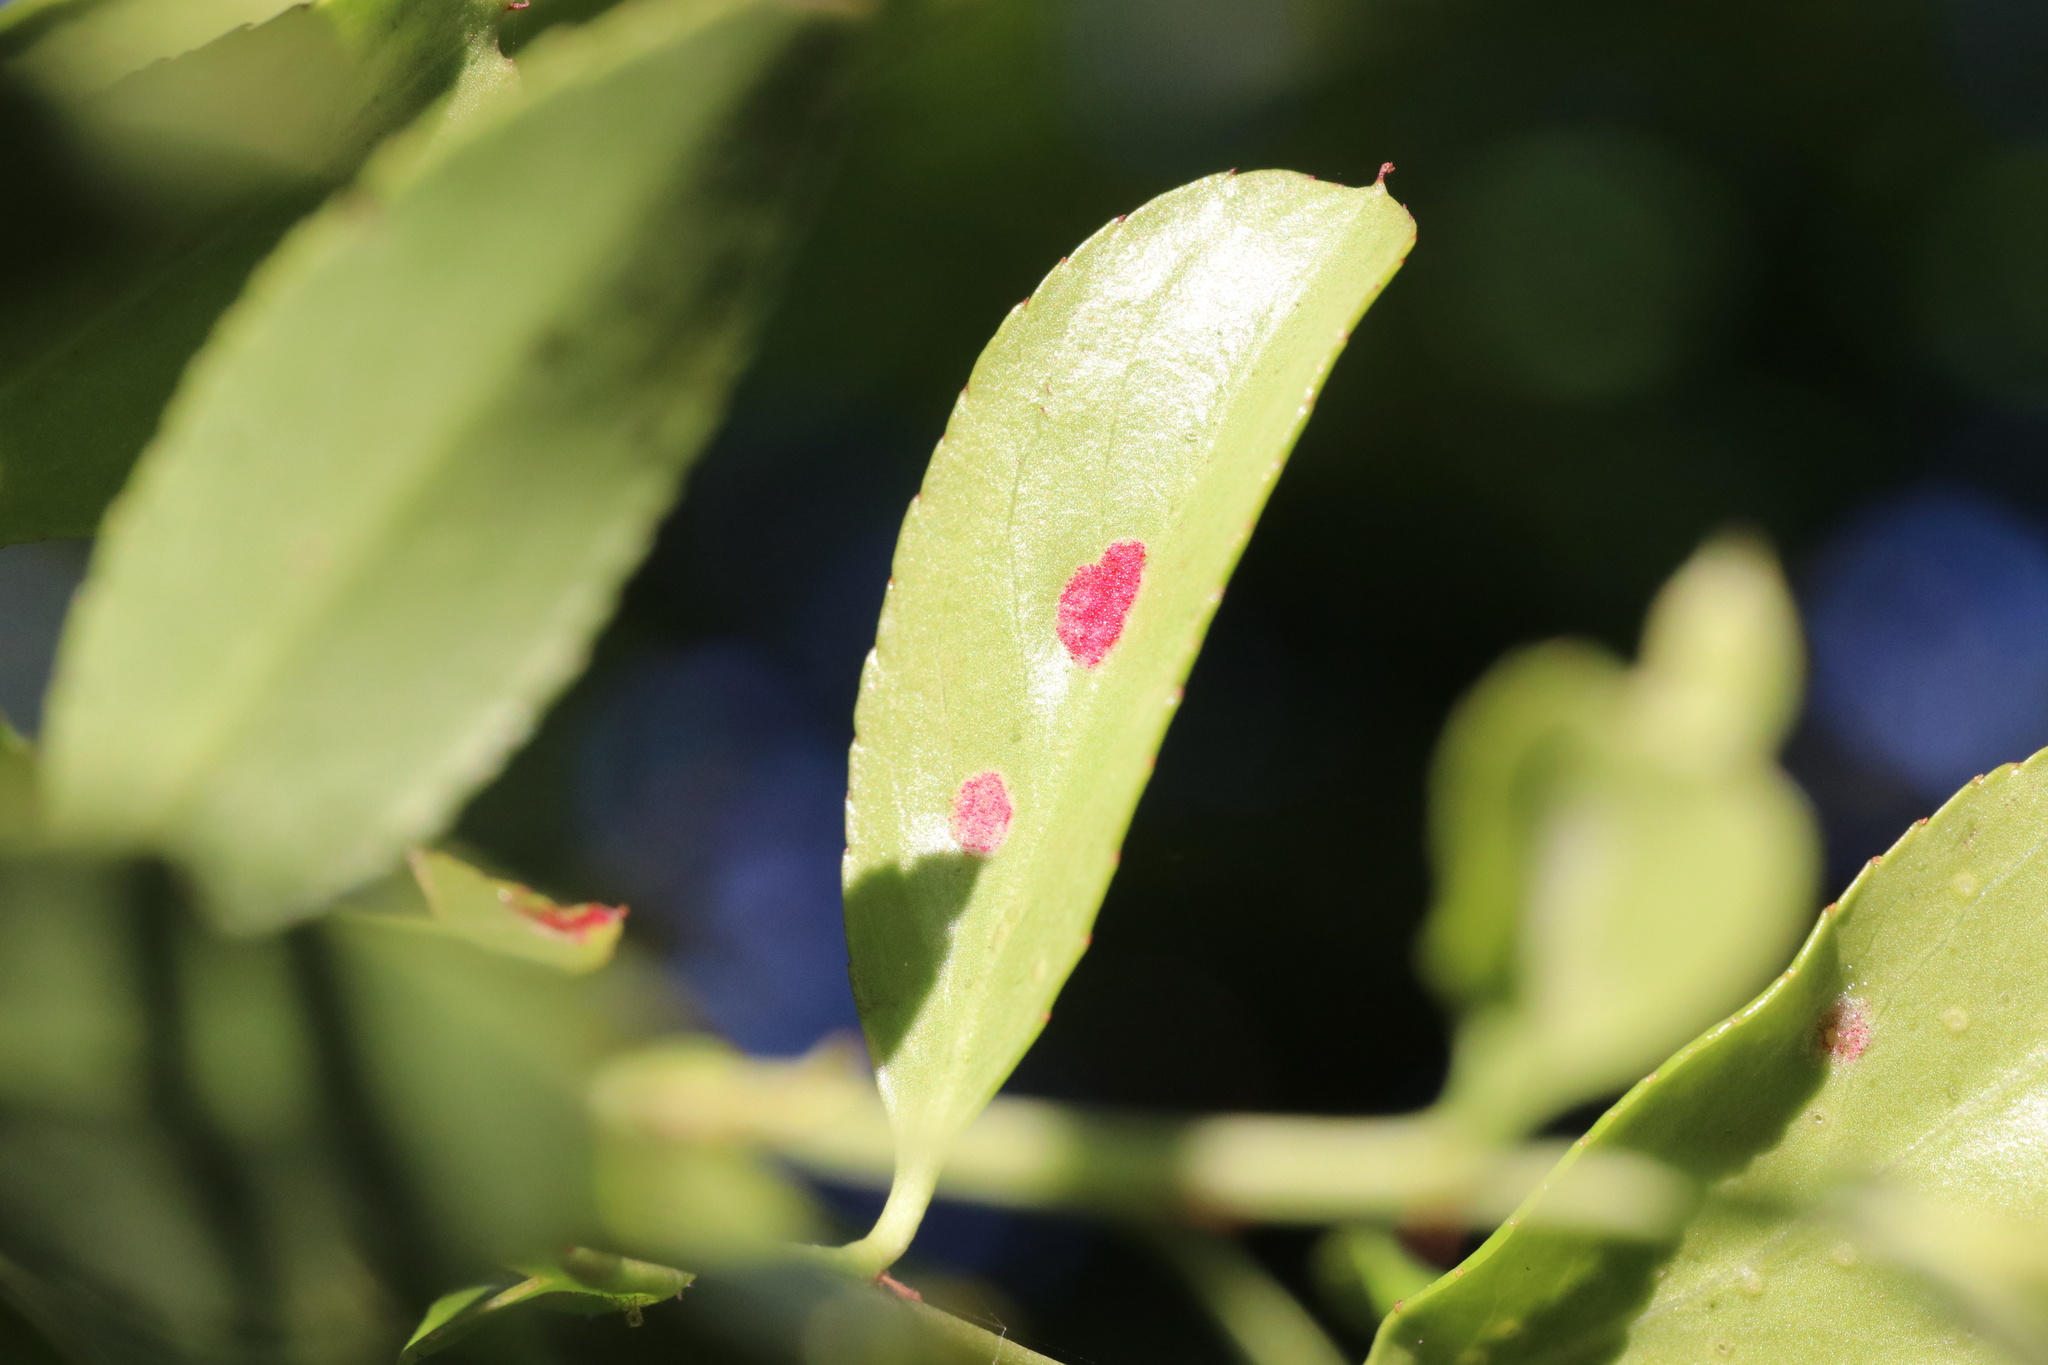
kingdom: Animalia
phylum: Arthropoda
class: Arachnida
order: Trombidiformes
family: Eriophyidae
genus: Eriophyes
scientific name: Eriophyes
